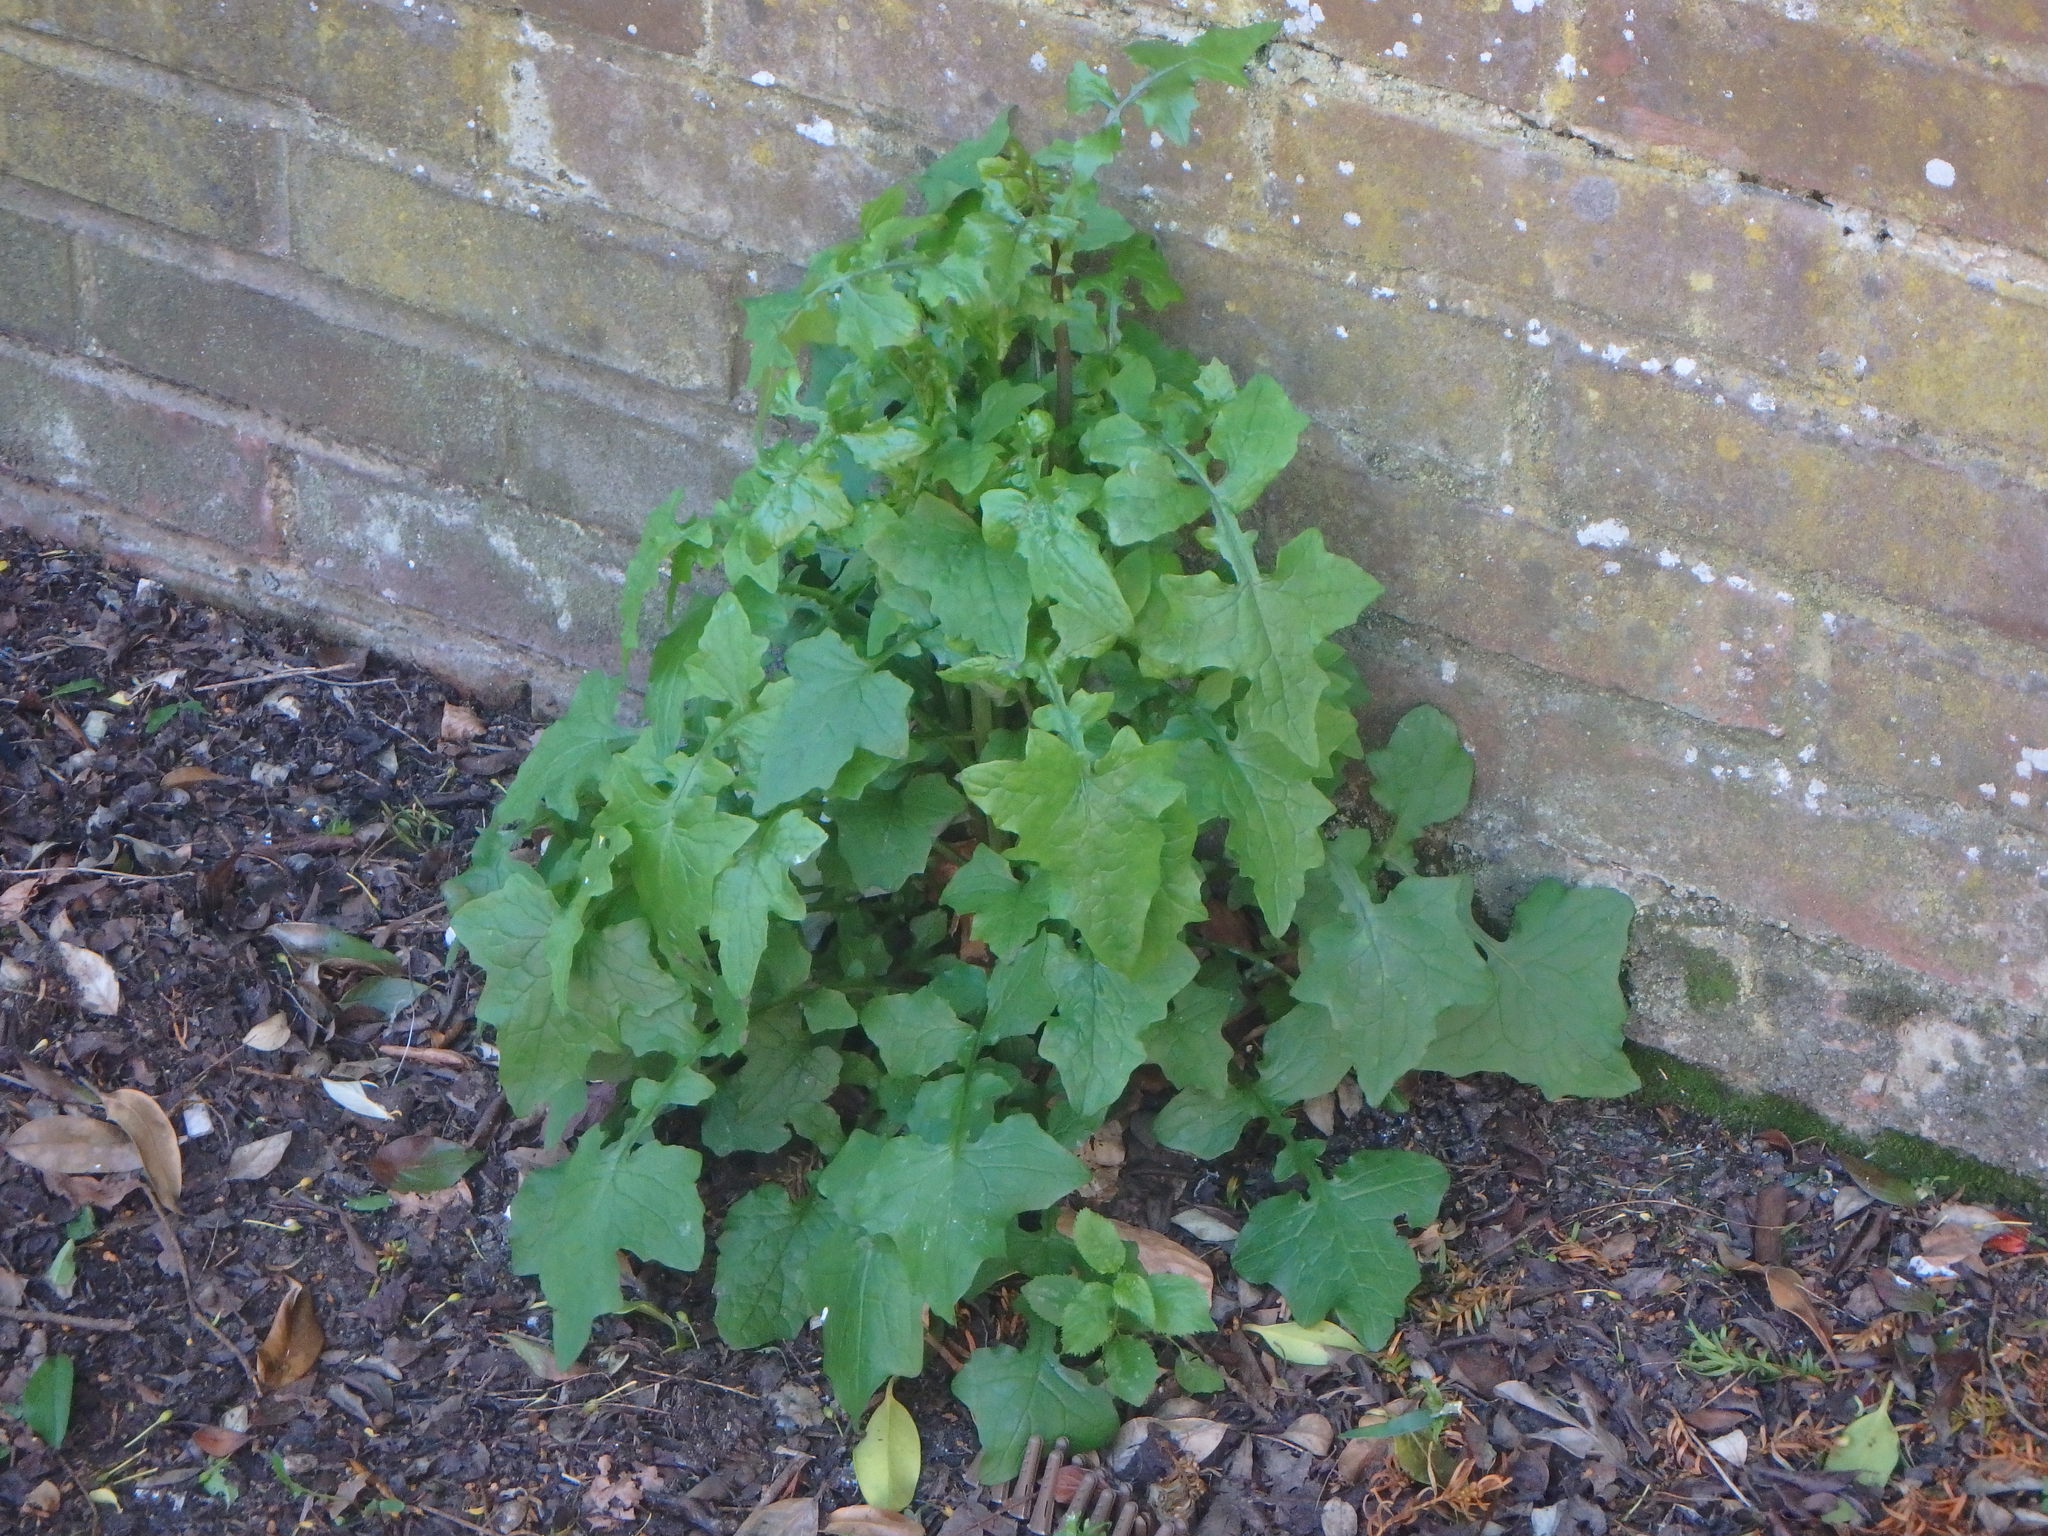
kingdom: Plantae
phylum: Tracheophyta
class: Magnoliopsida
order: Asterales
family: Asteraceae
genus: Mycelis
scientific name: Mycelis muralis
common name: Wall lettuce
